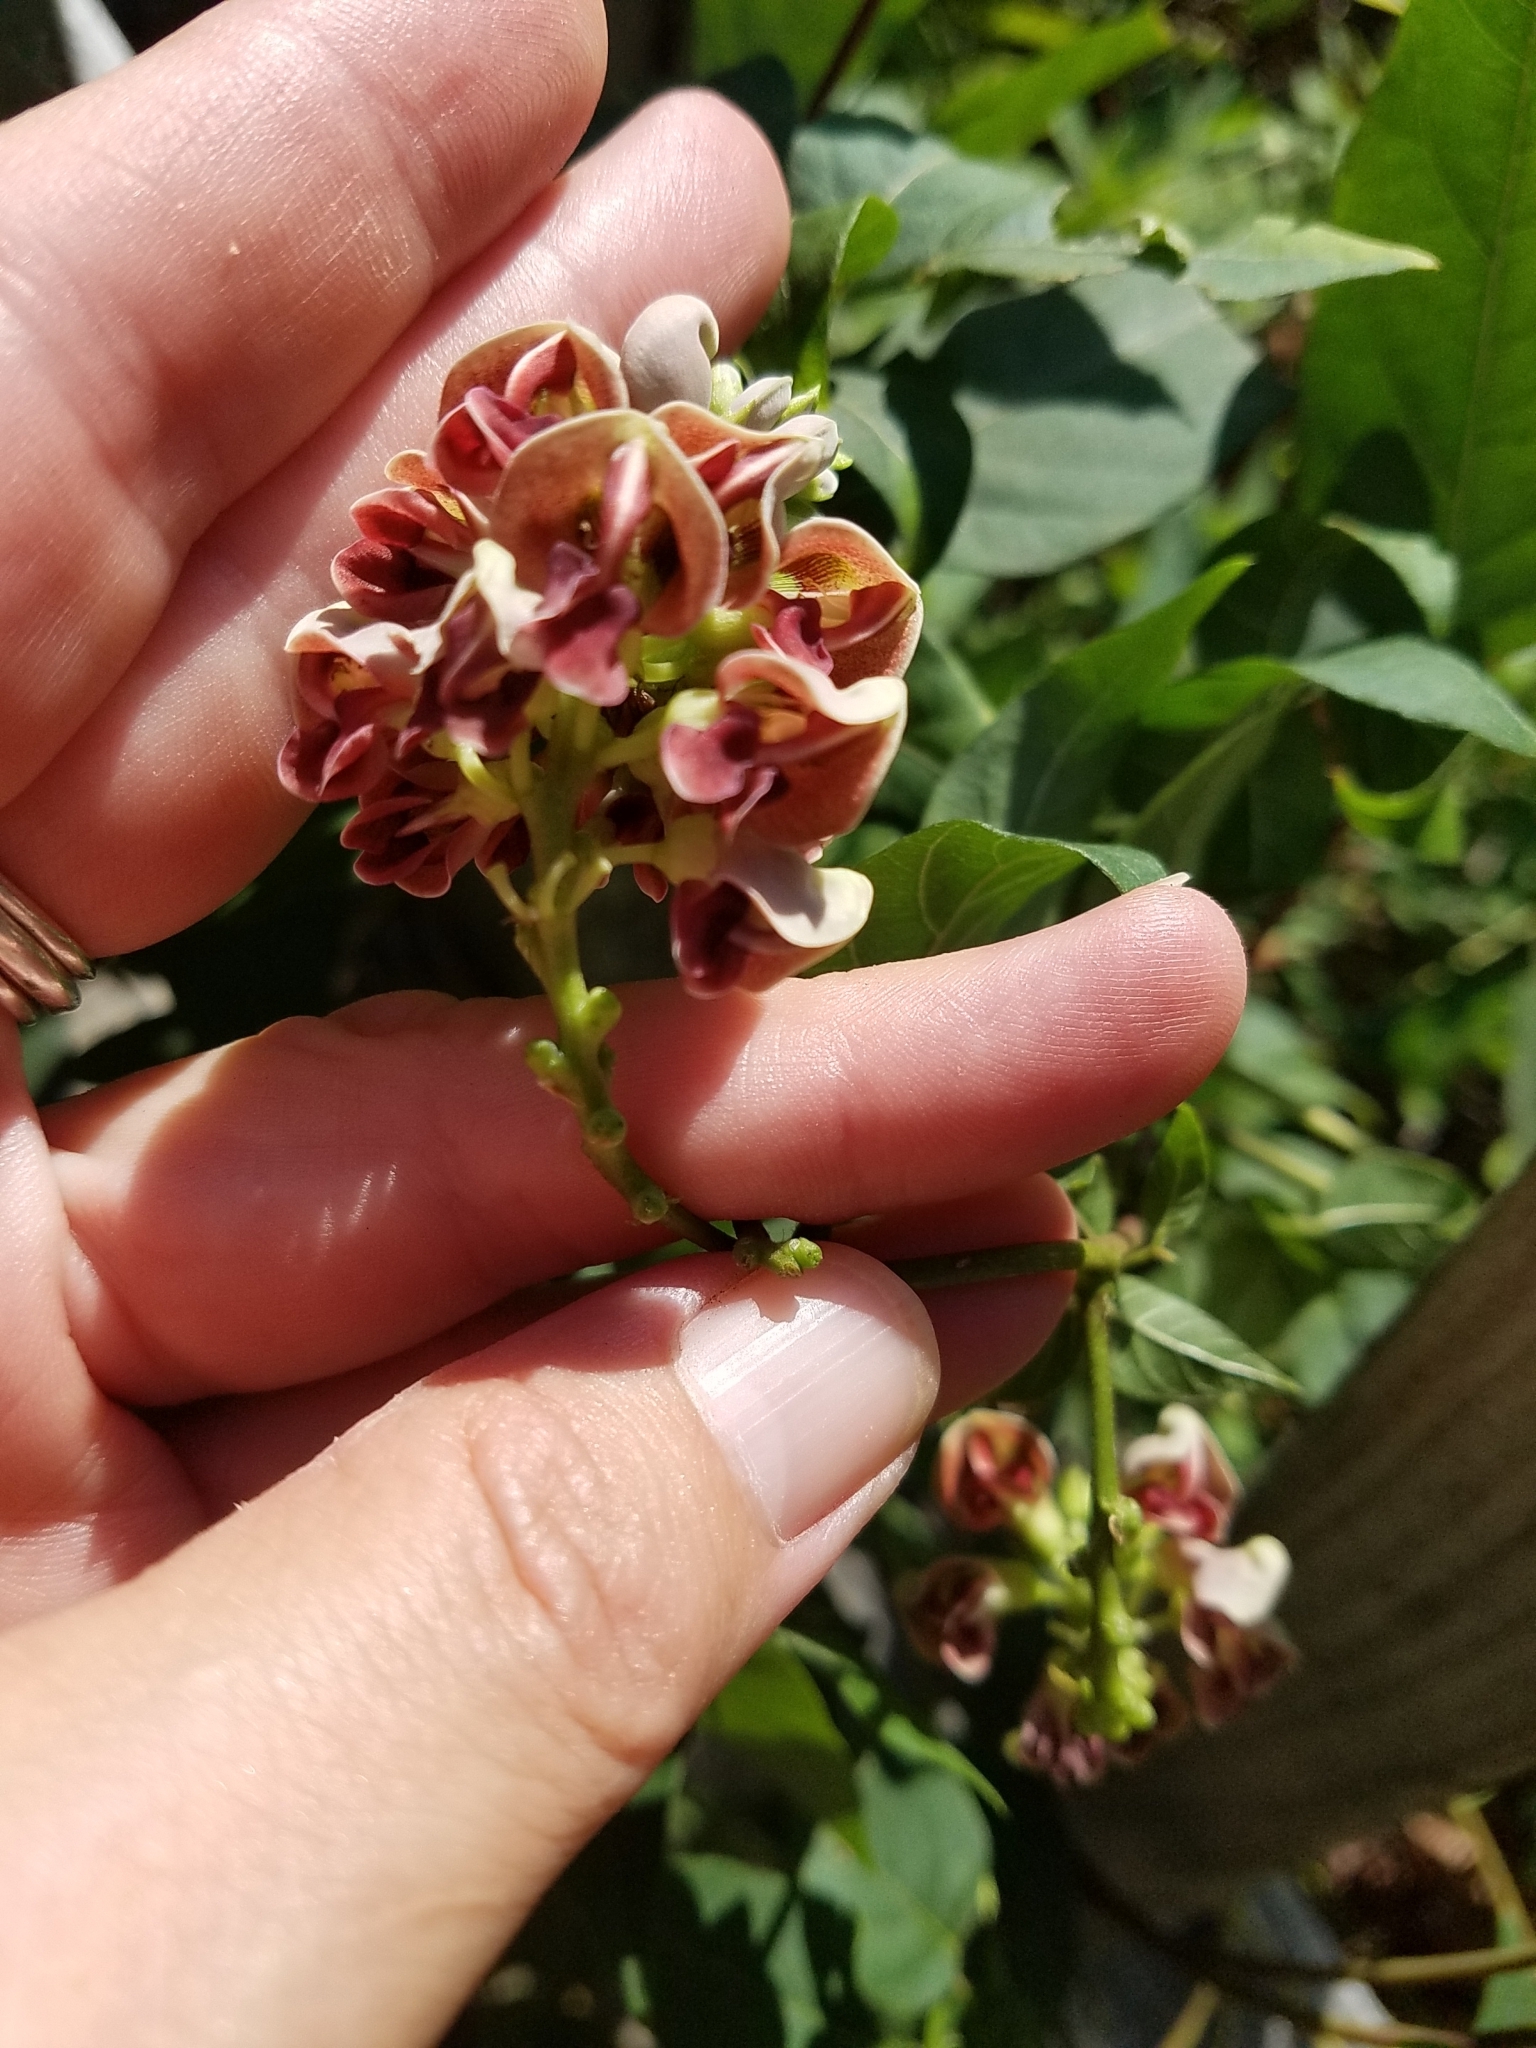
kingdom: Plantae
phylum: Tracheophyta
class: Magnoliopsida
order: Fabales
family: Fabaceae
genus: Apios
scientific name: Apios americana
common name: American potato-bean
